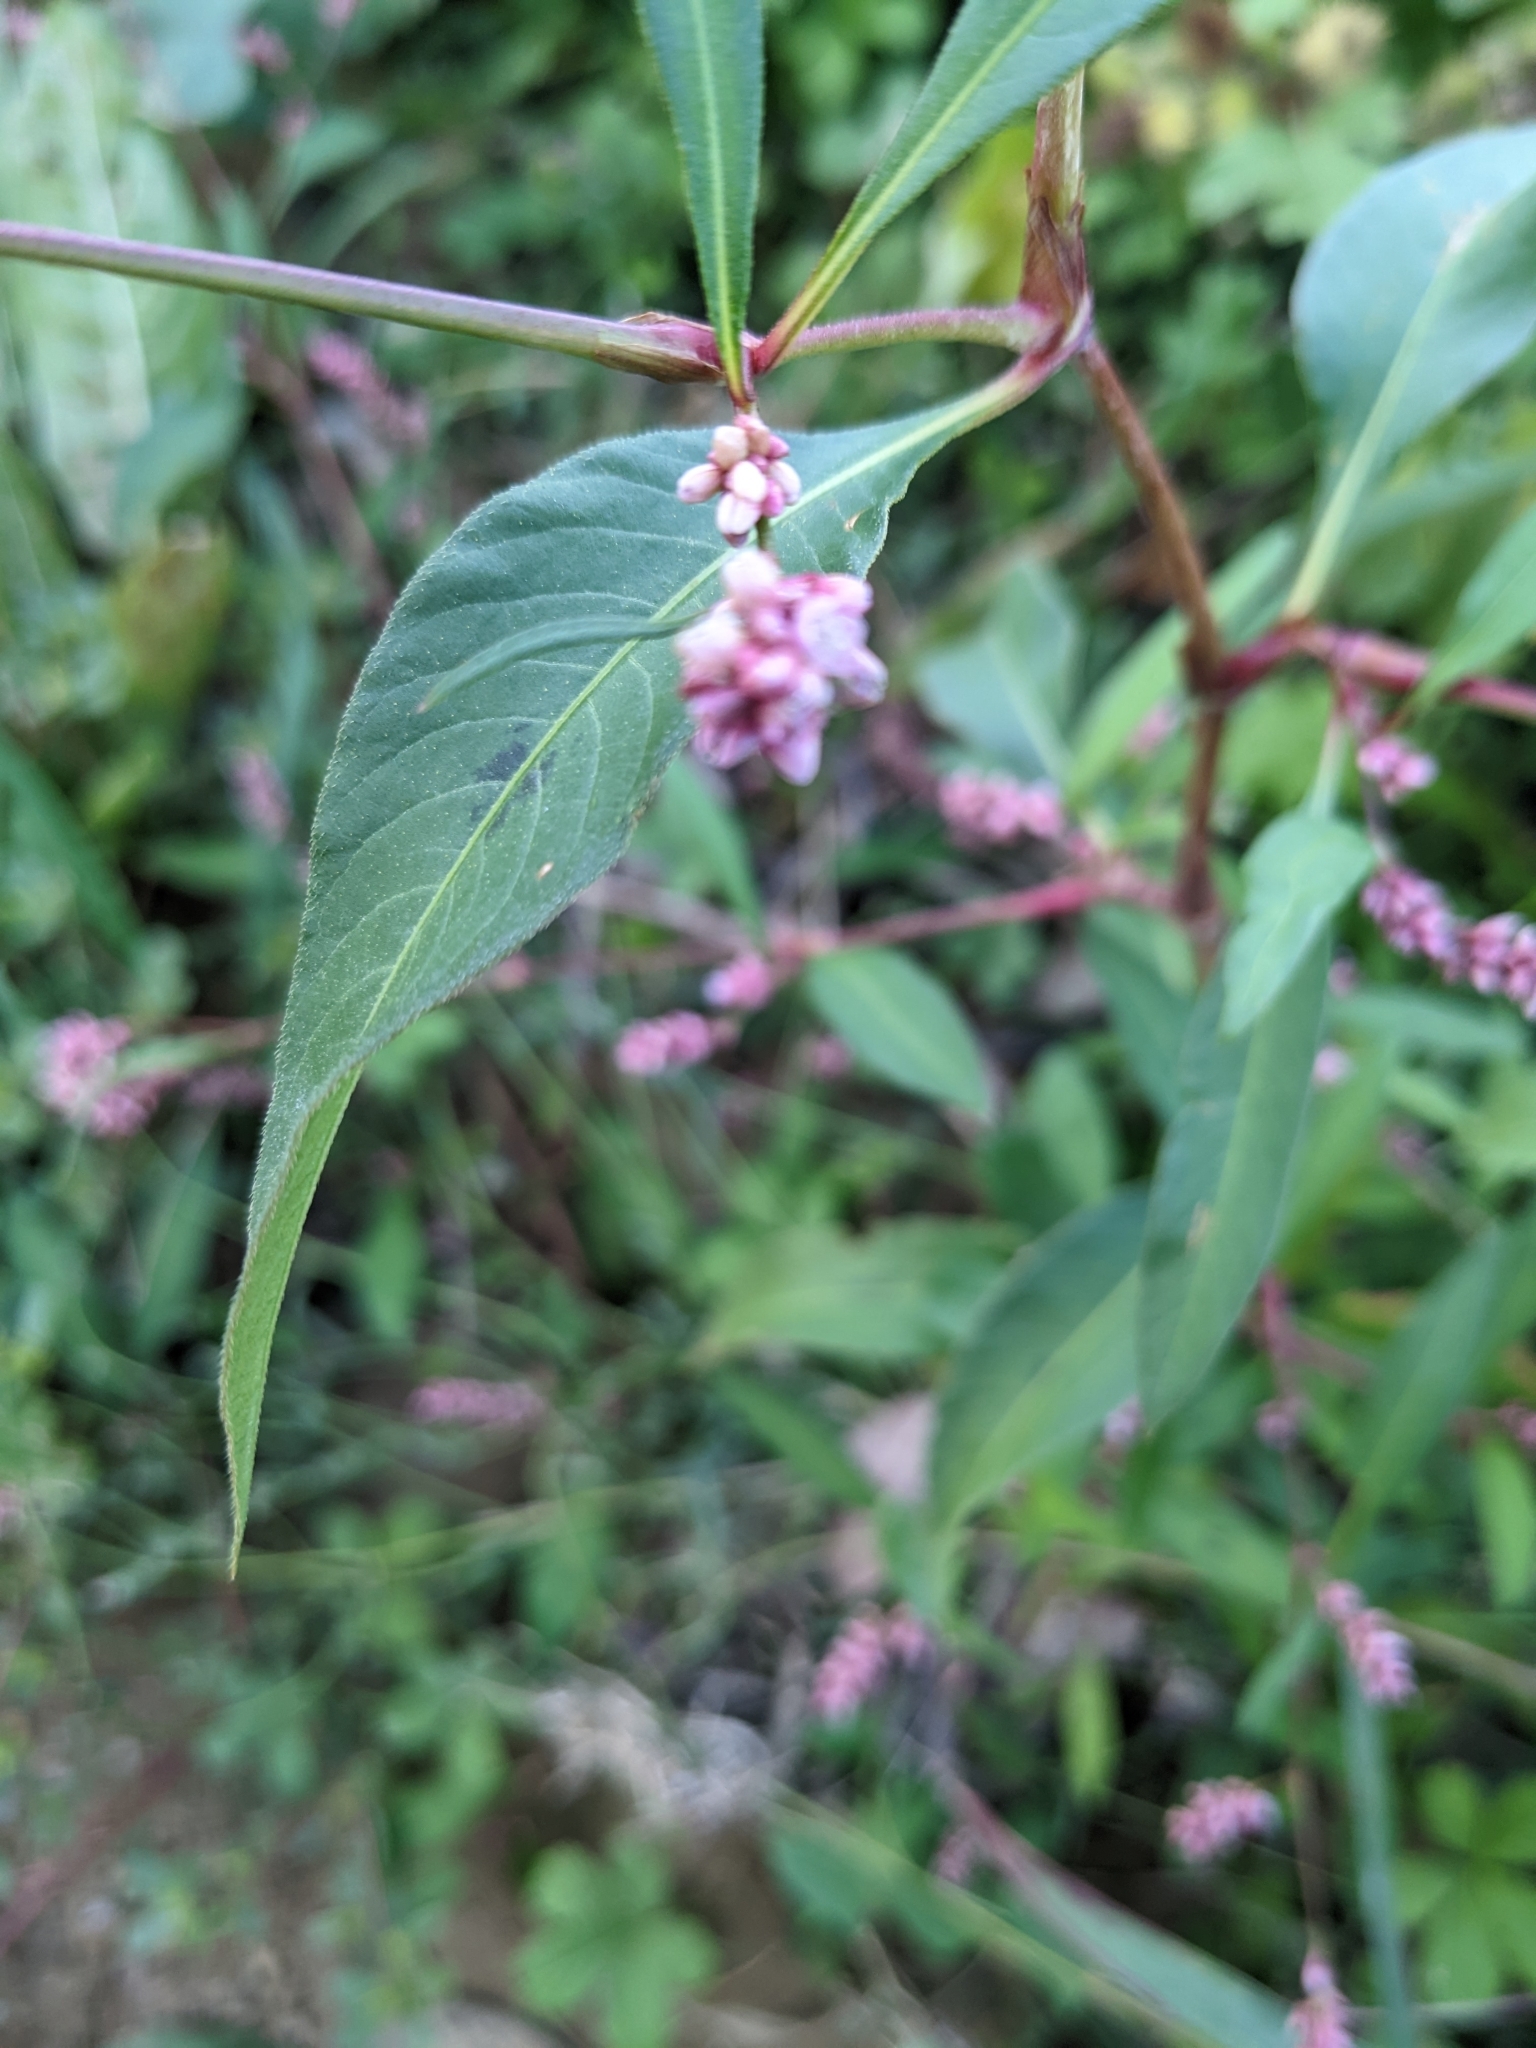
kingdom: Plantae
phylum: Tracheophyta
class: Magnoliopsida
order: Caryophyllales
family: Polygonaceae
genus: Persicaria
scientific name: Persicaria maculosa
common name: Redshank
